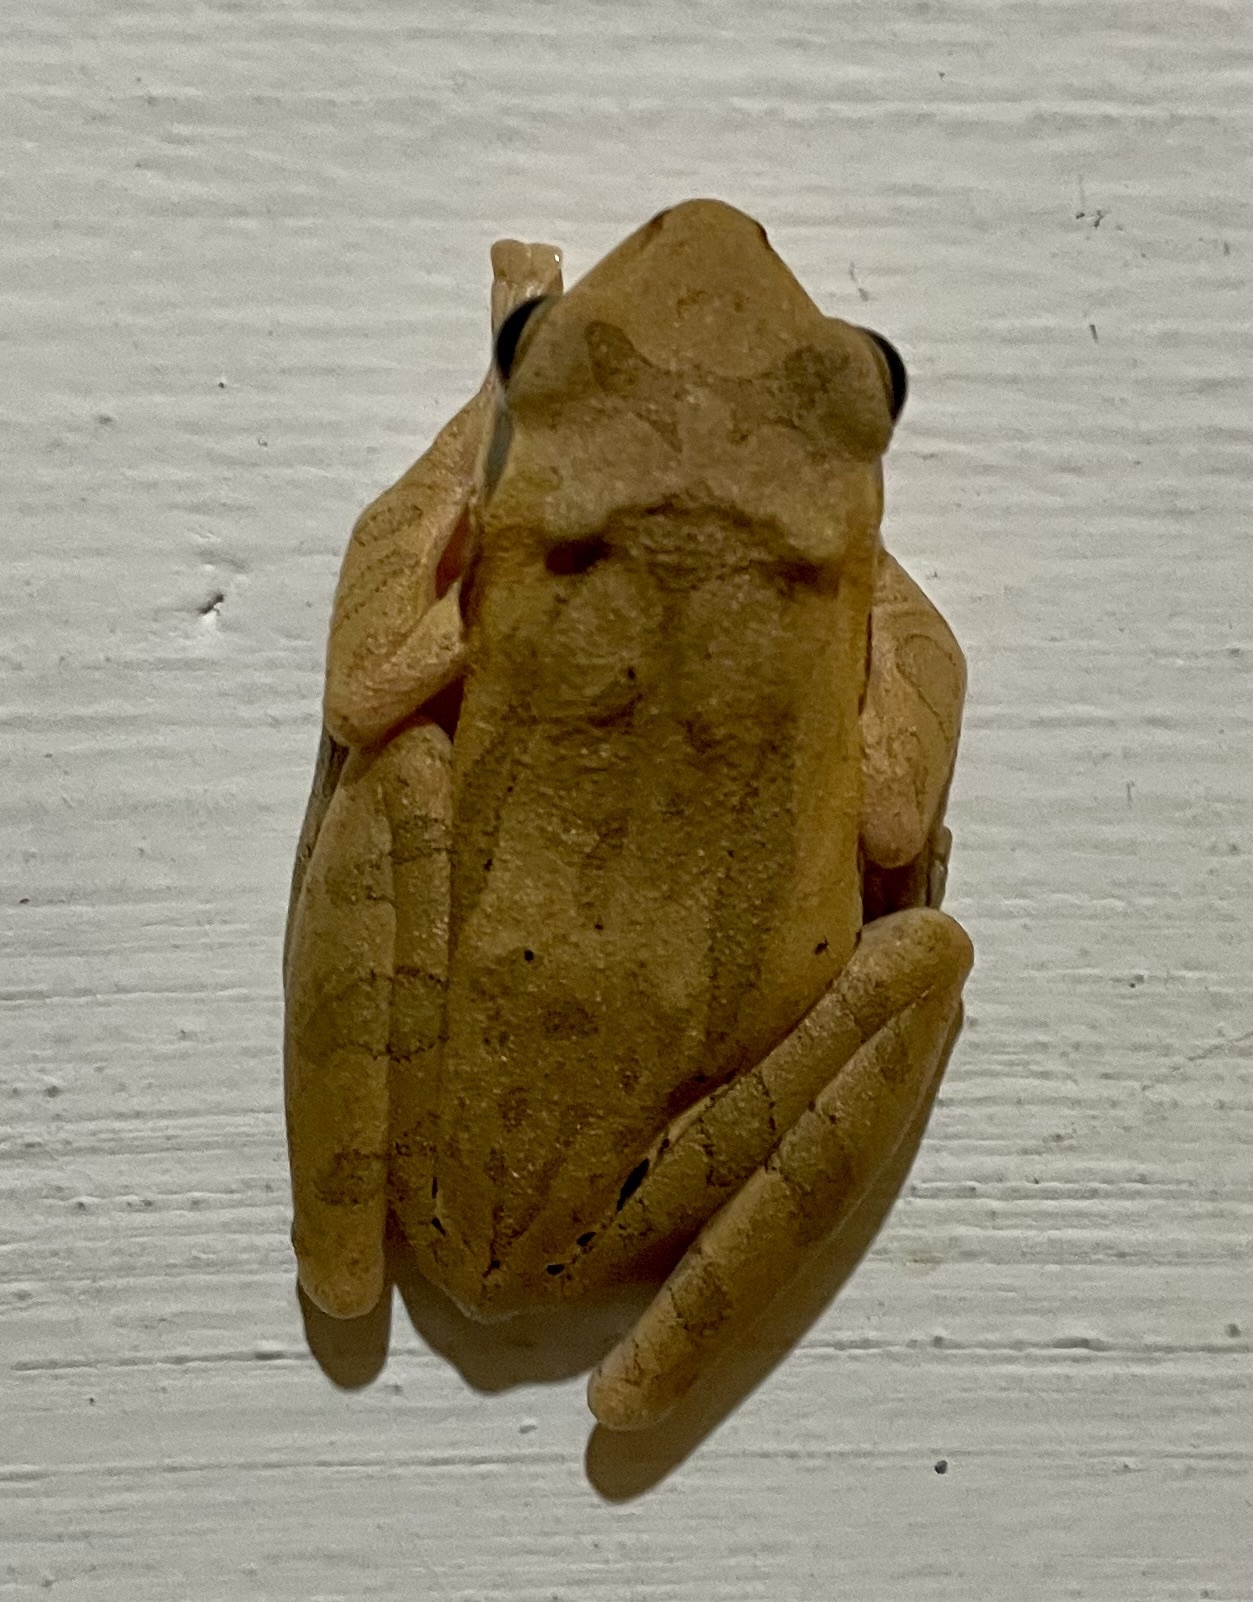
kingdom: Animalia
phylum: Chordata
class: Amphibia
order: Anura
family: Rhacophoridae
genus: Polypedates
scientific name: Polypedates maculatus
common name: Himalayan tree frog
